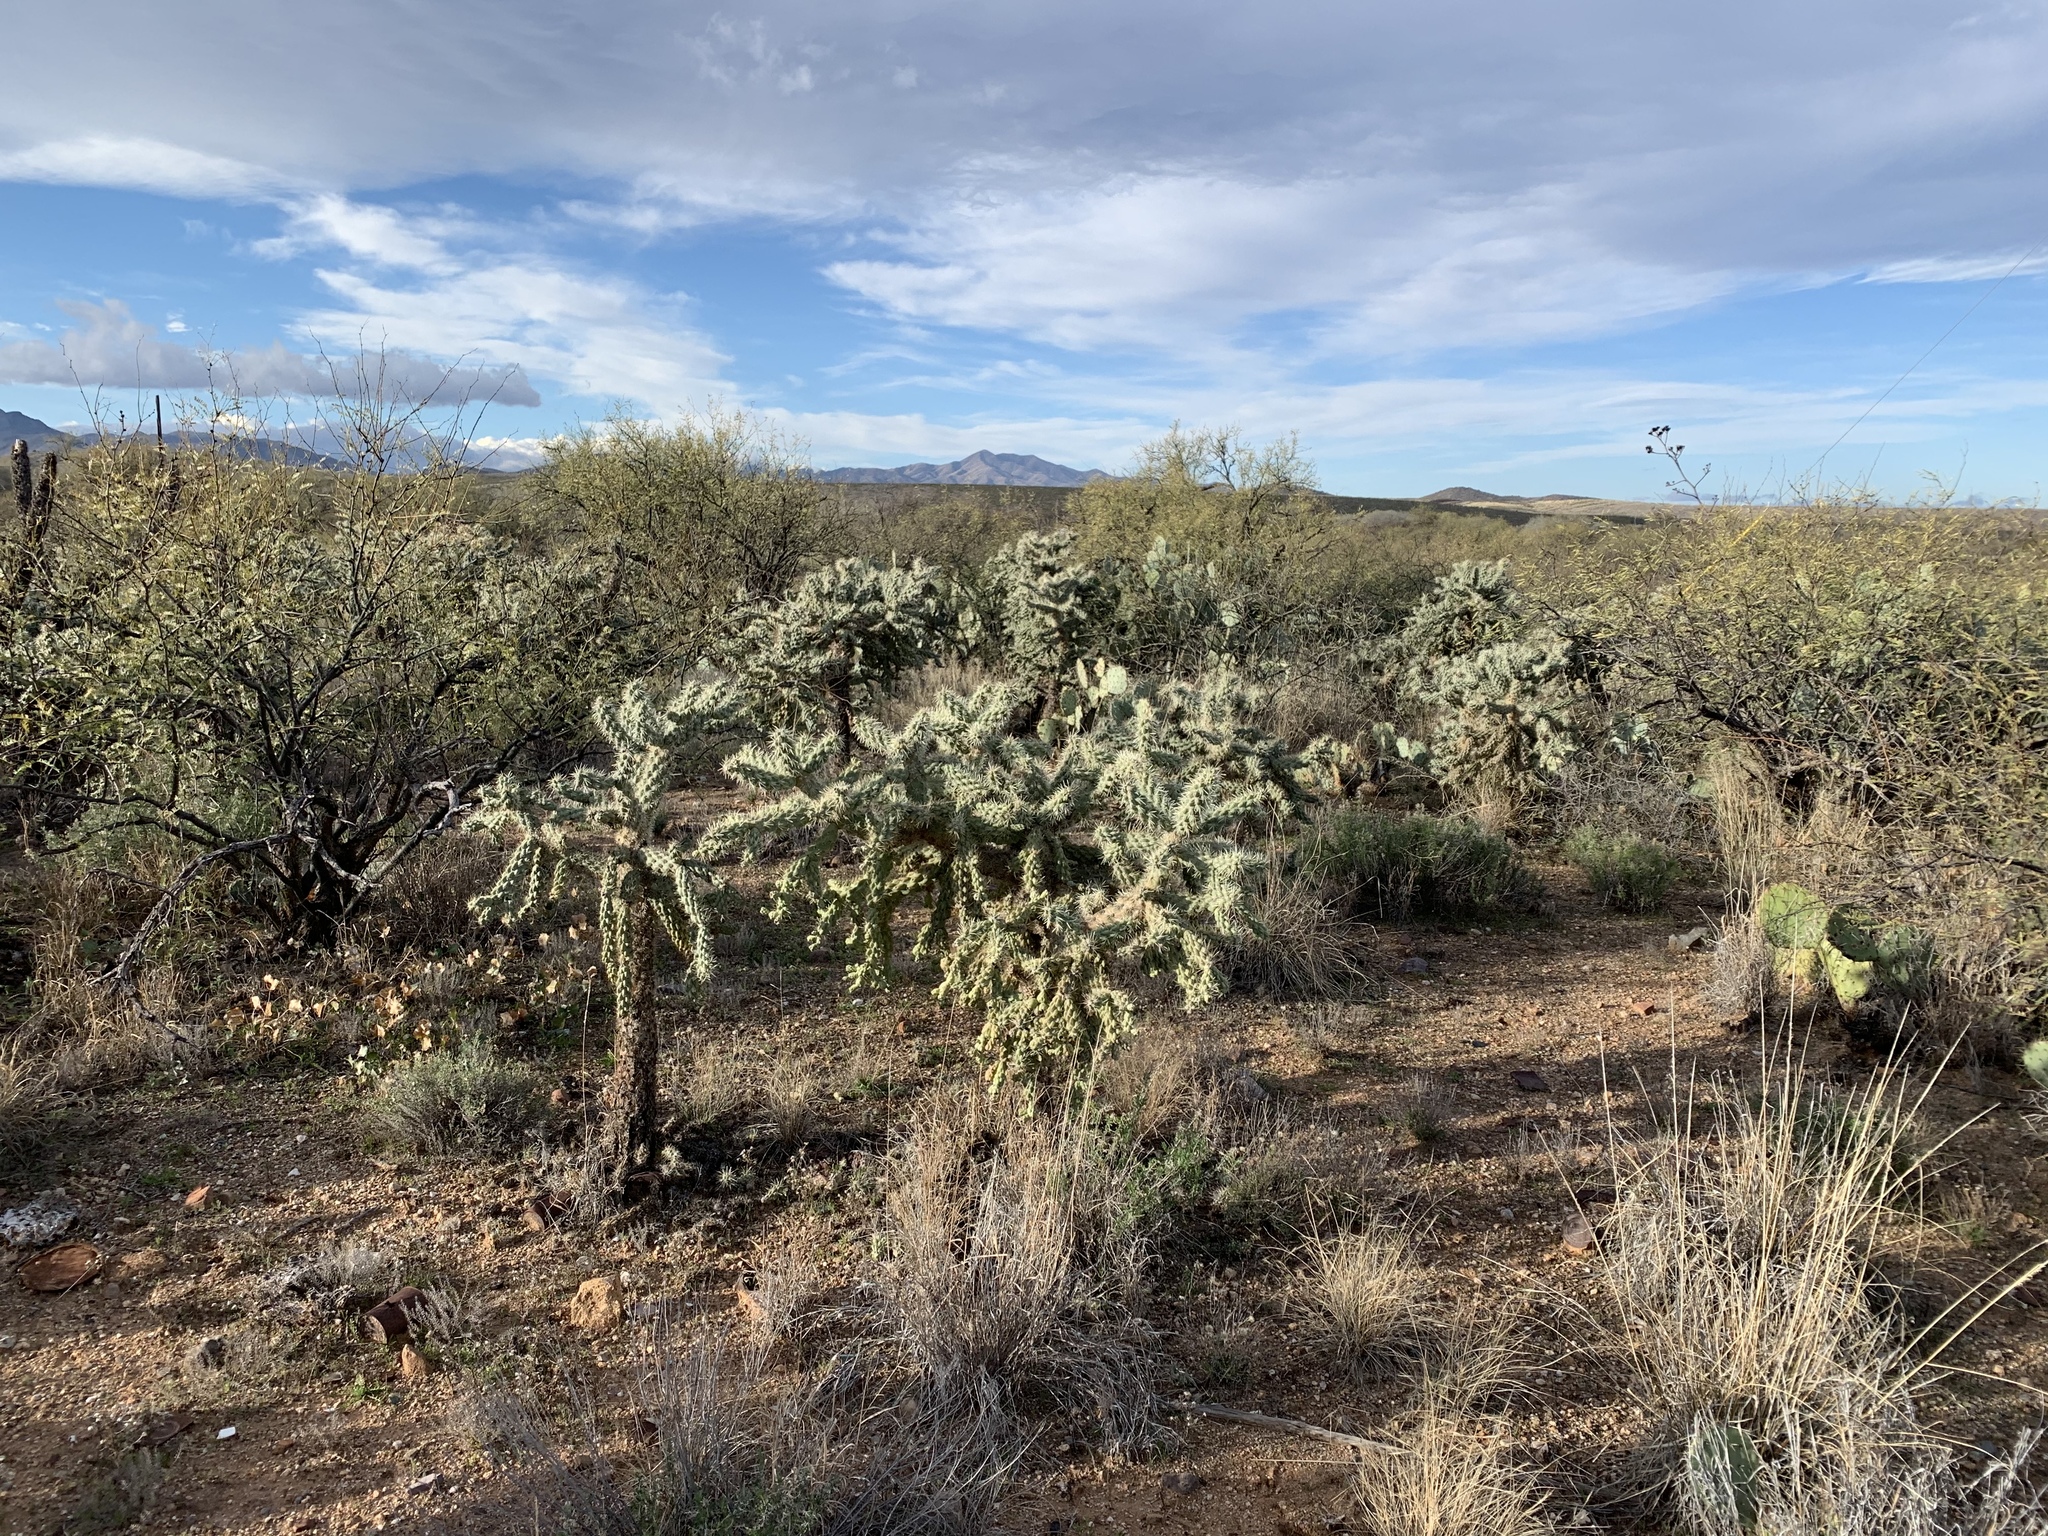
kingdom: Plantae
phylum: Tracheophyta
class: Magnoliopsida
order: Caryophyllales
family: Cactaceae
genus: Cylindropuntia
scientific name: Cylindropuntia fulgida
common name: Jumping cholla
